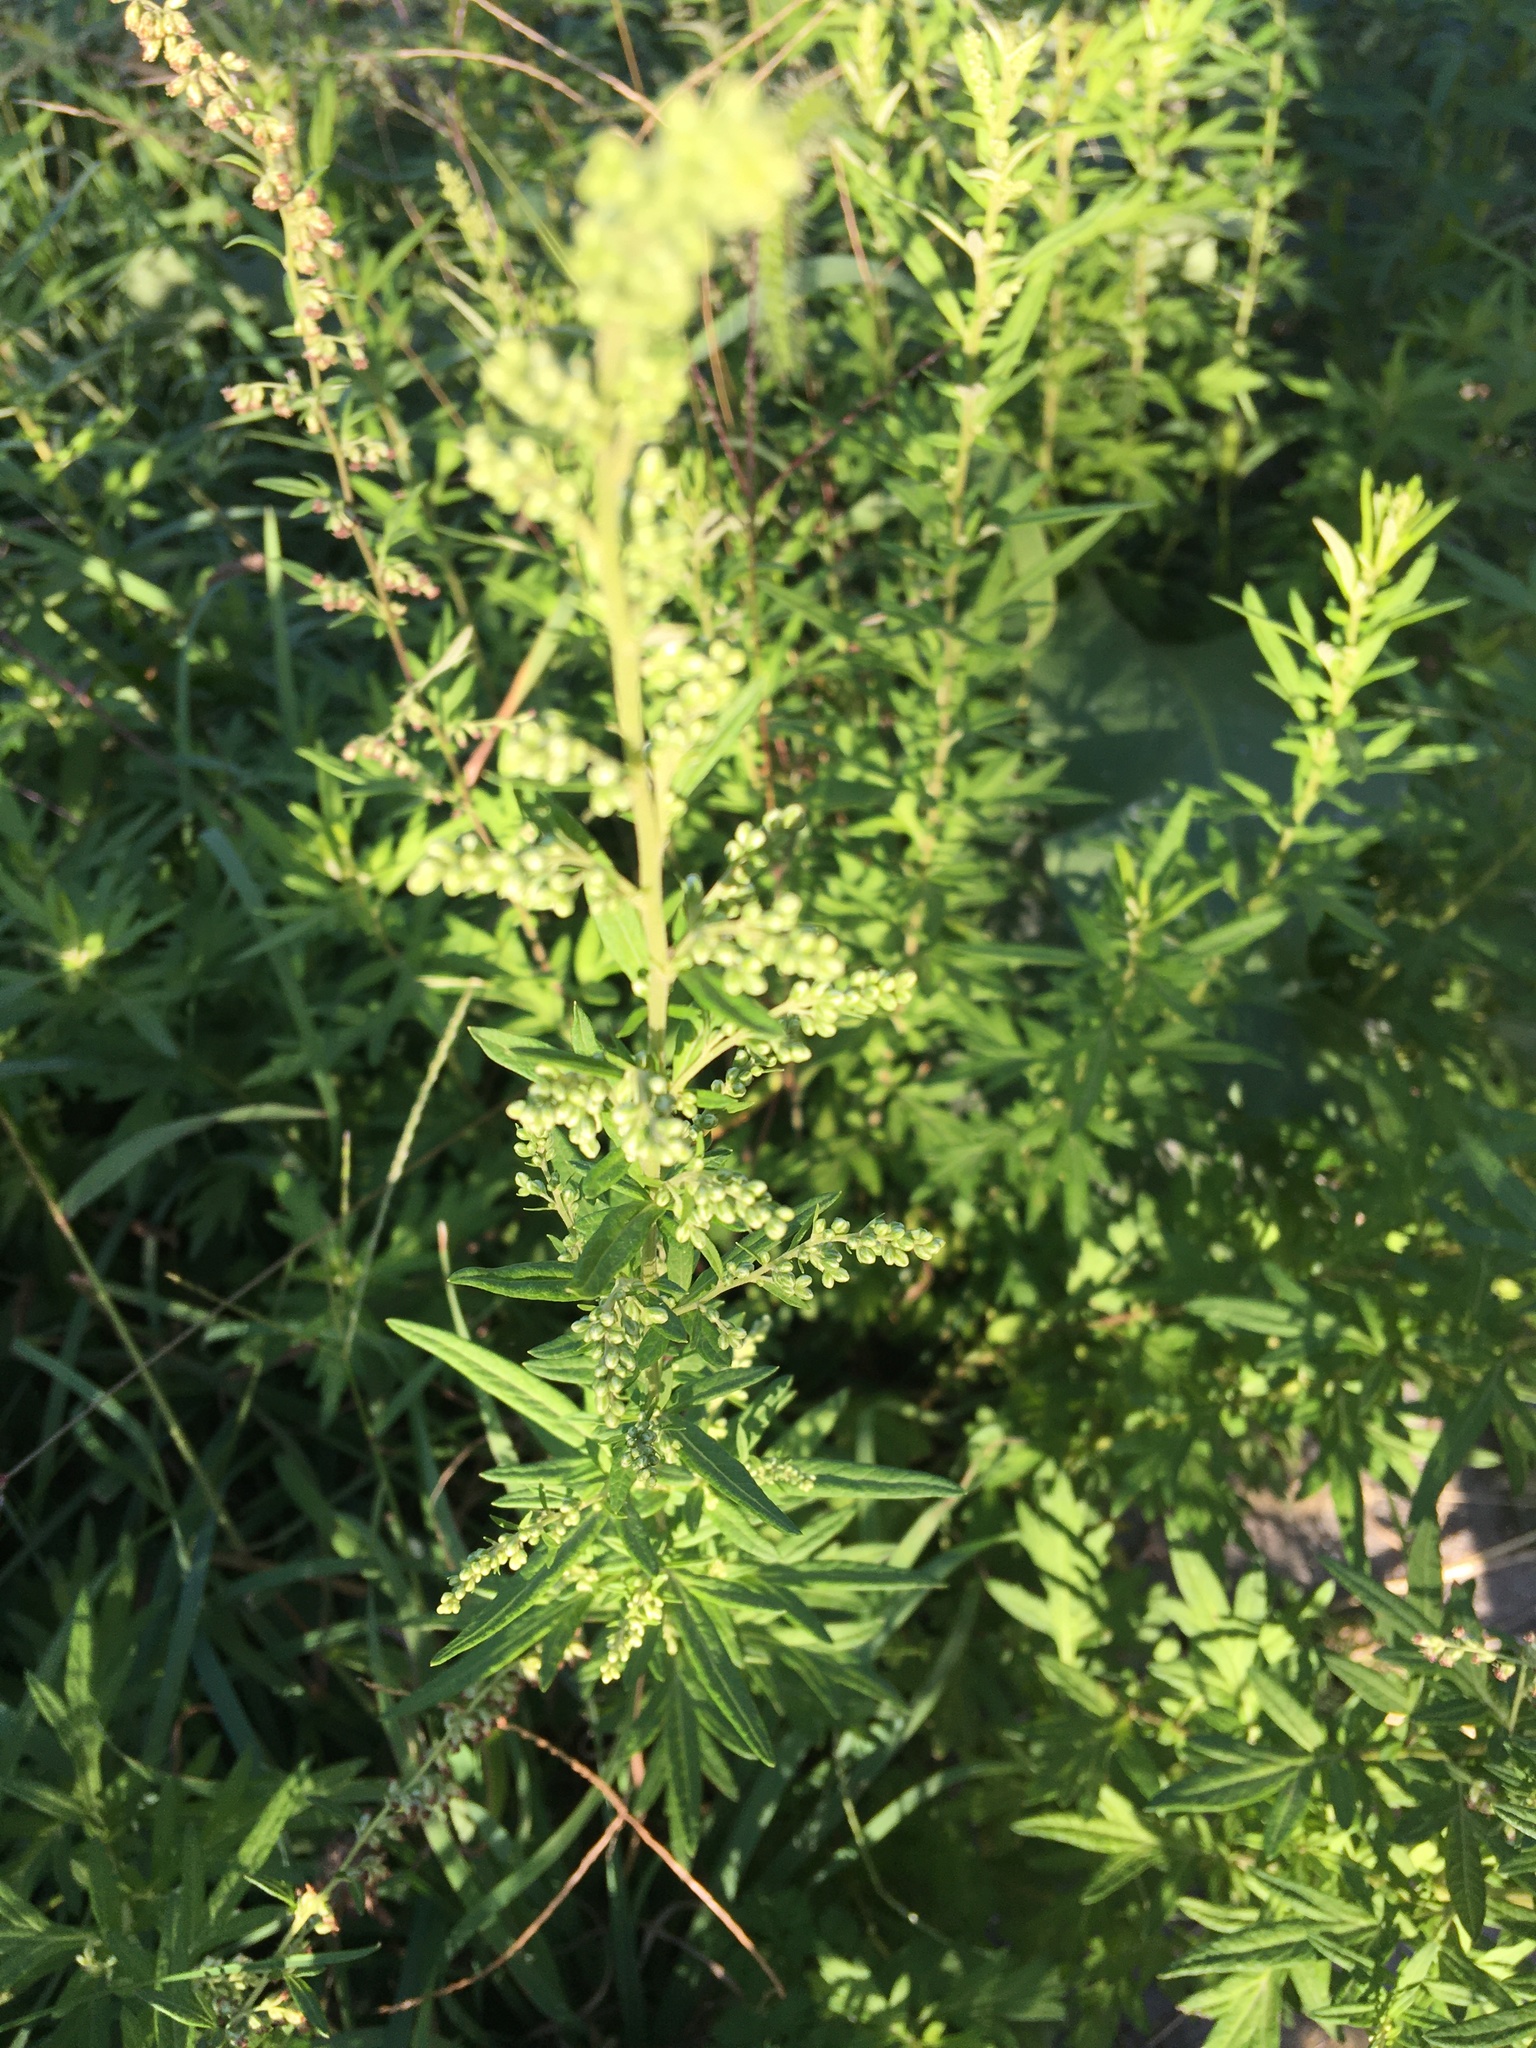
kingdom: Plantae
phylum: Tracheophyta
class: Magnoliopsida
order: Asterales
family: Asteraceae
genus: Artemisia
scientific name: Artemisia vulgaris
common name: Mugwort
